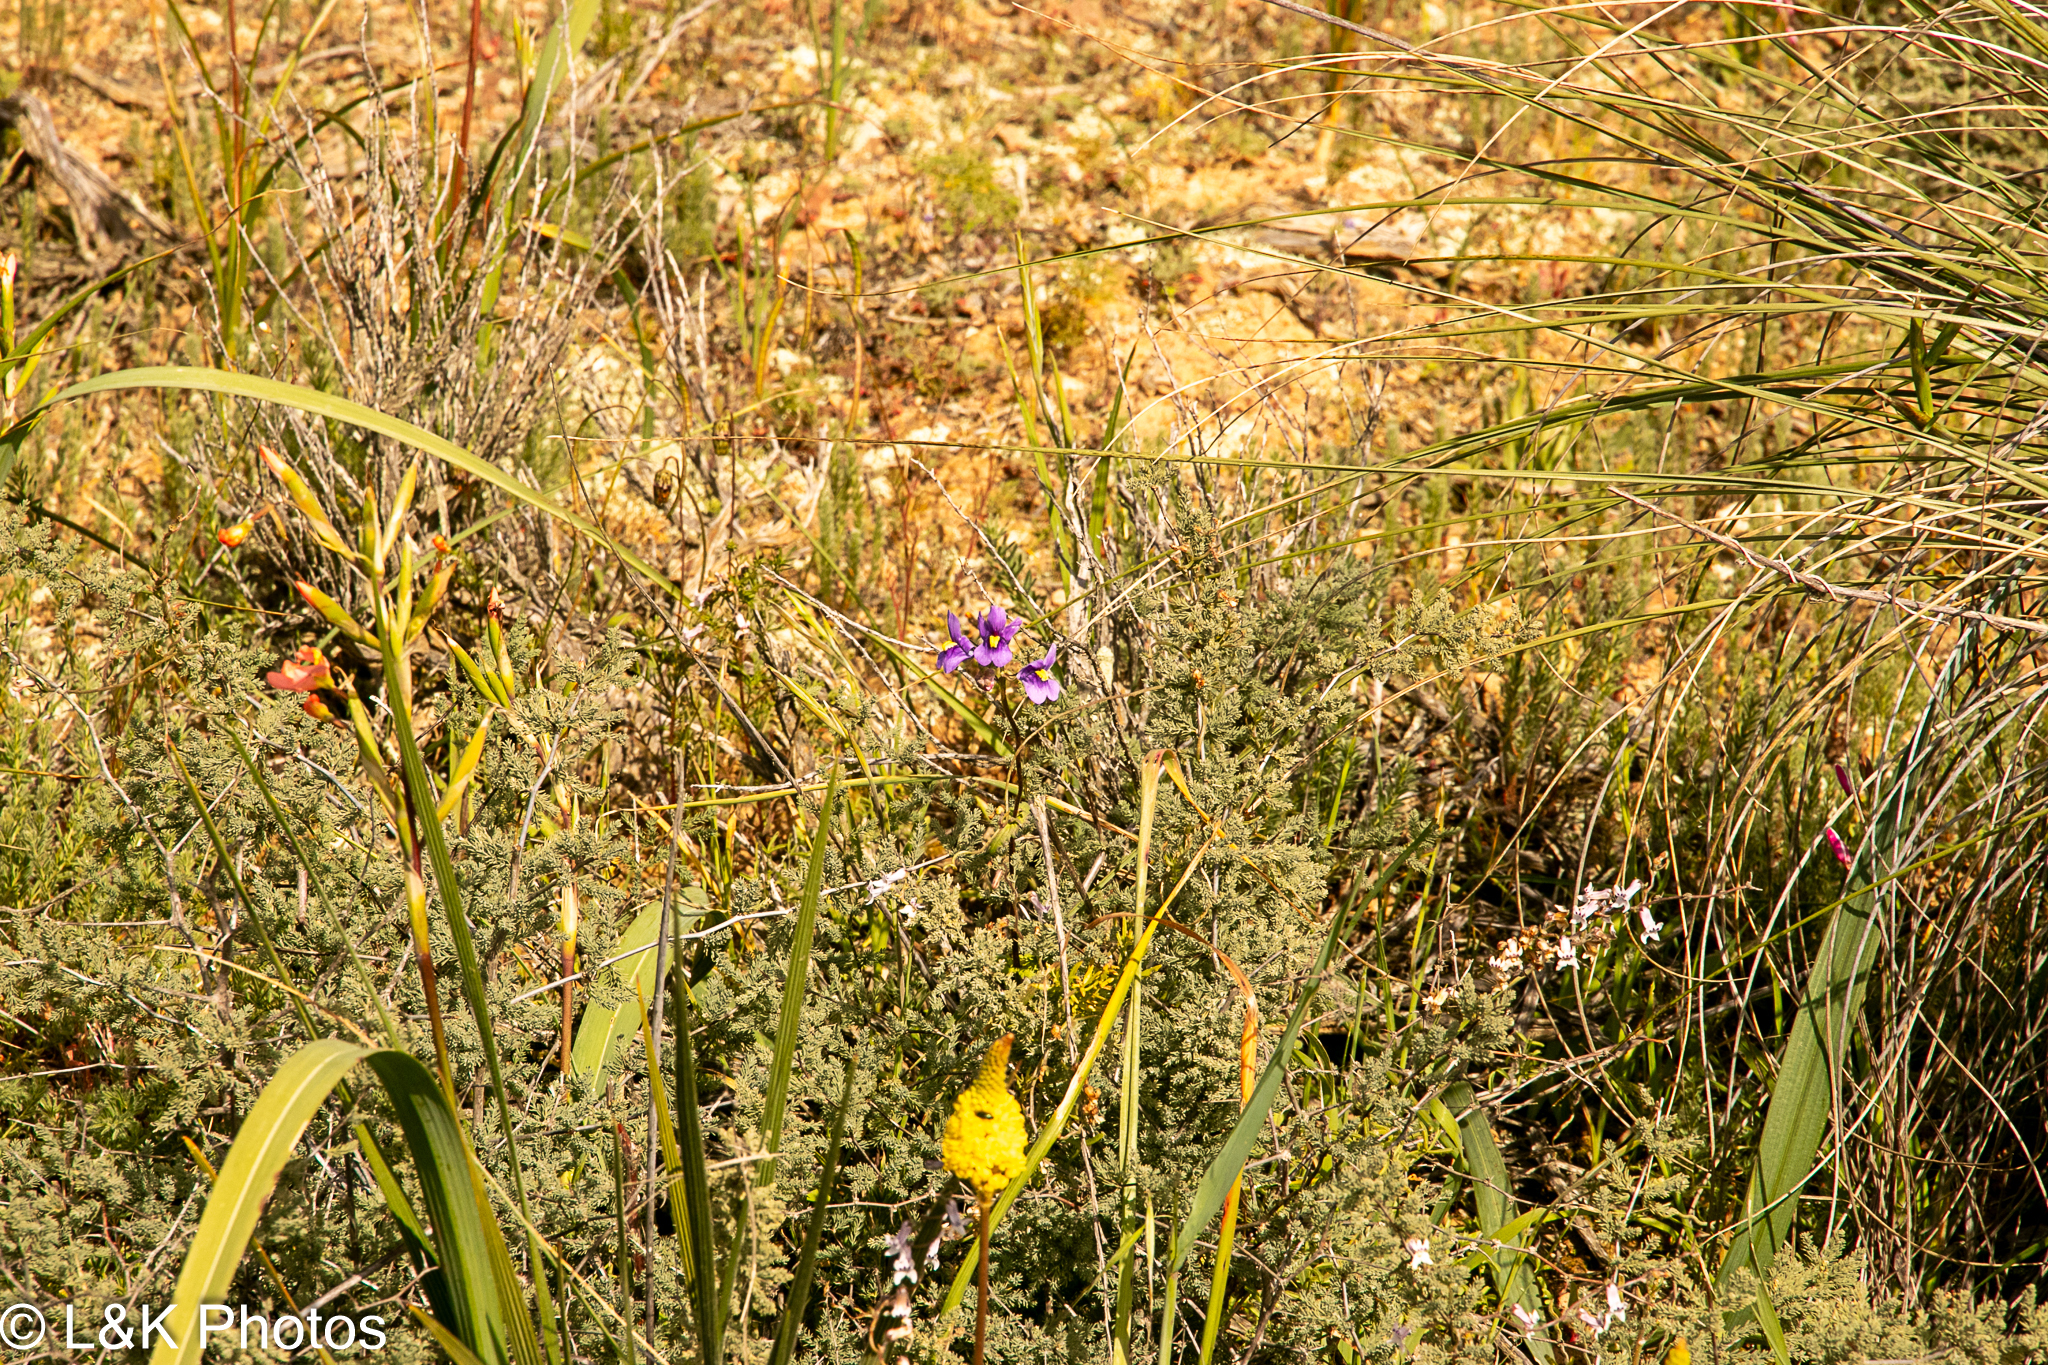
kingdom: Plantae
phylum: Tracheophyta
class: Magnoliopsida
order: Lamiales
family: Scrophulariaceae
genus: Nemesia
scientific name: Nemesia leipoldtii
